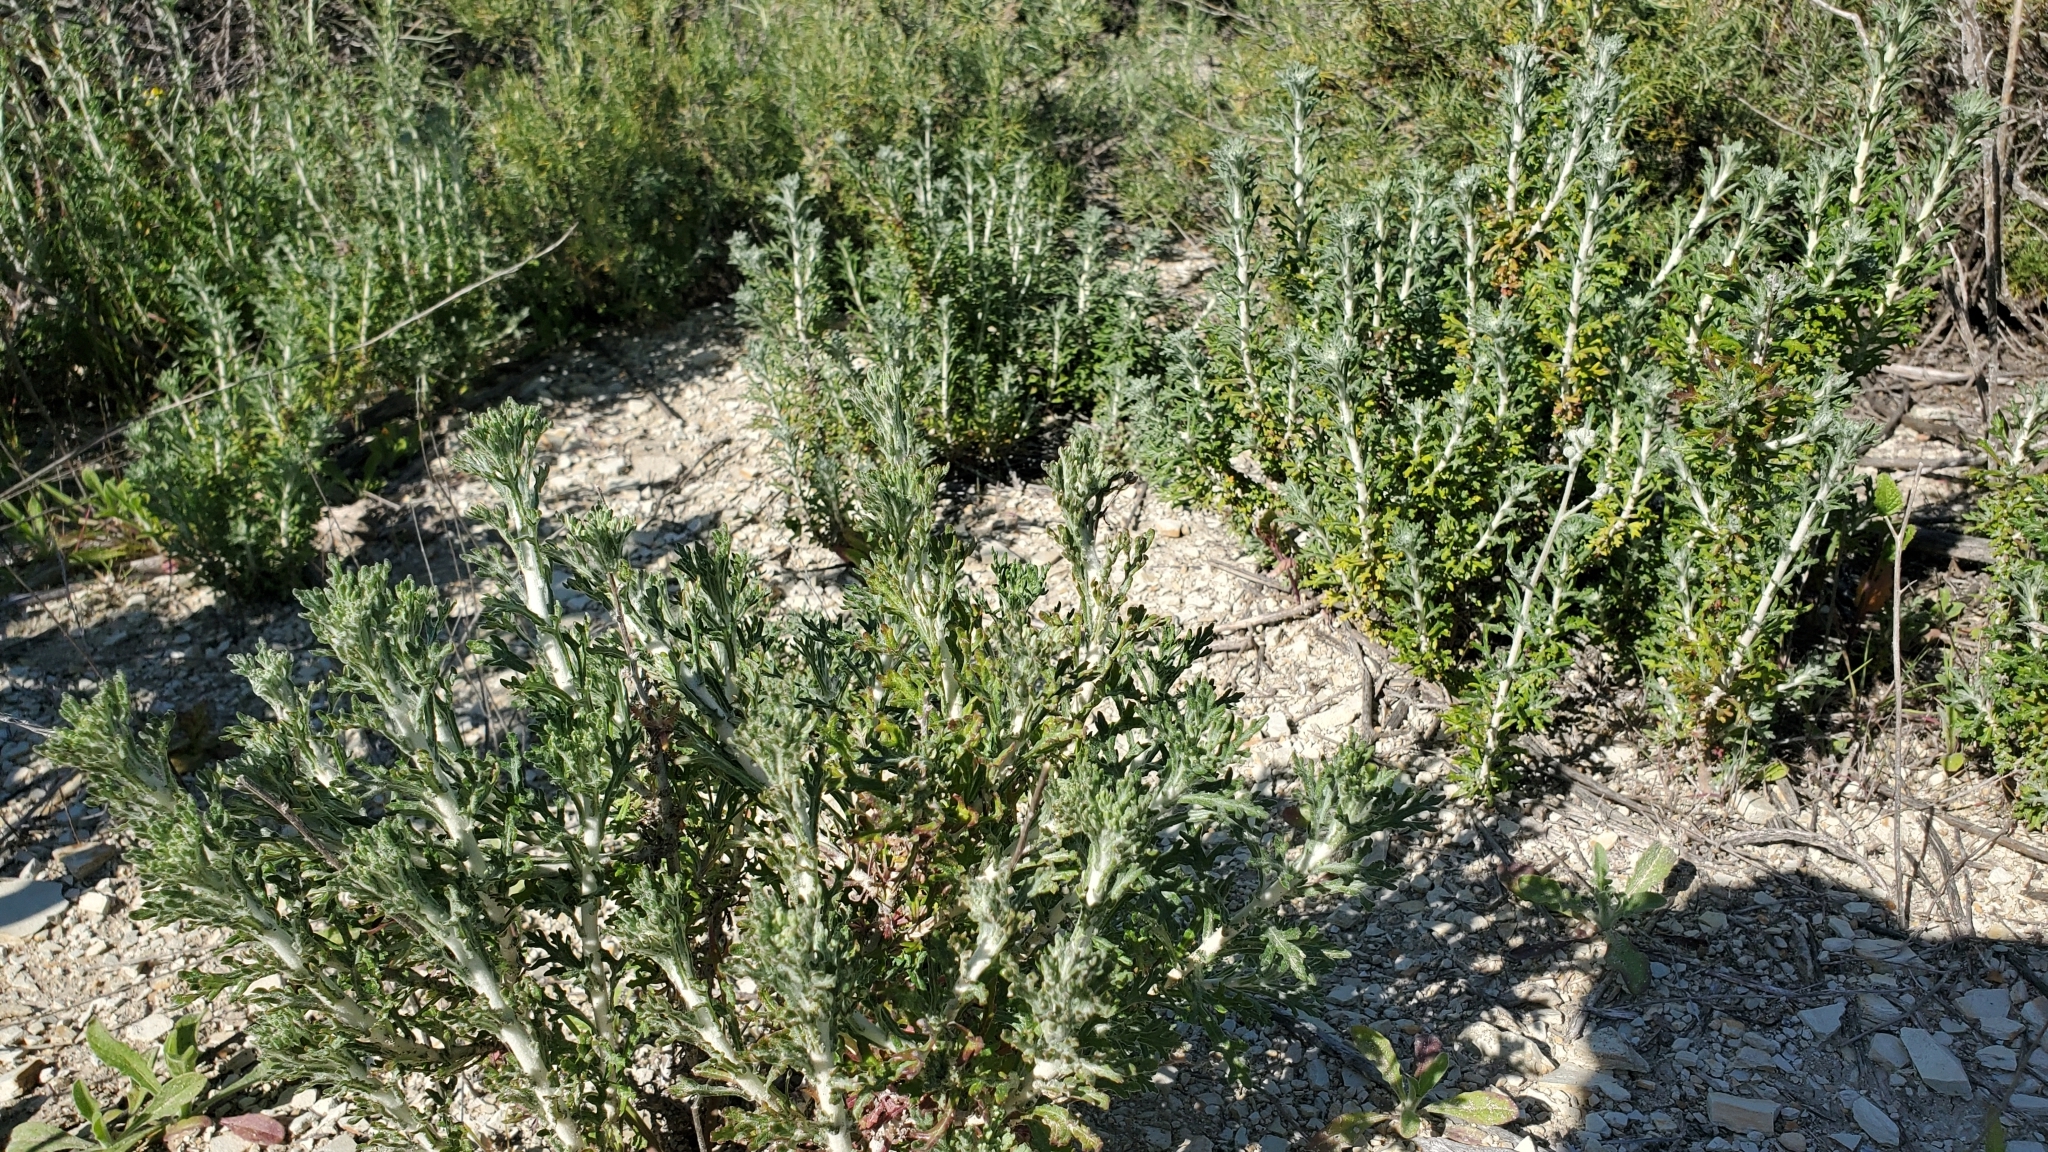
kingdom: Plantae
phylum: Tracheophyta
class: Magnoliopsida
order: Asterales
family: Asteraceae
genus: Eriophyllum
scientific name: Eriophyllum confertiflorum
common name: Golden-yarrow
